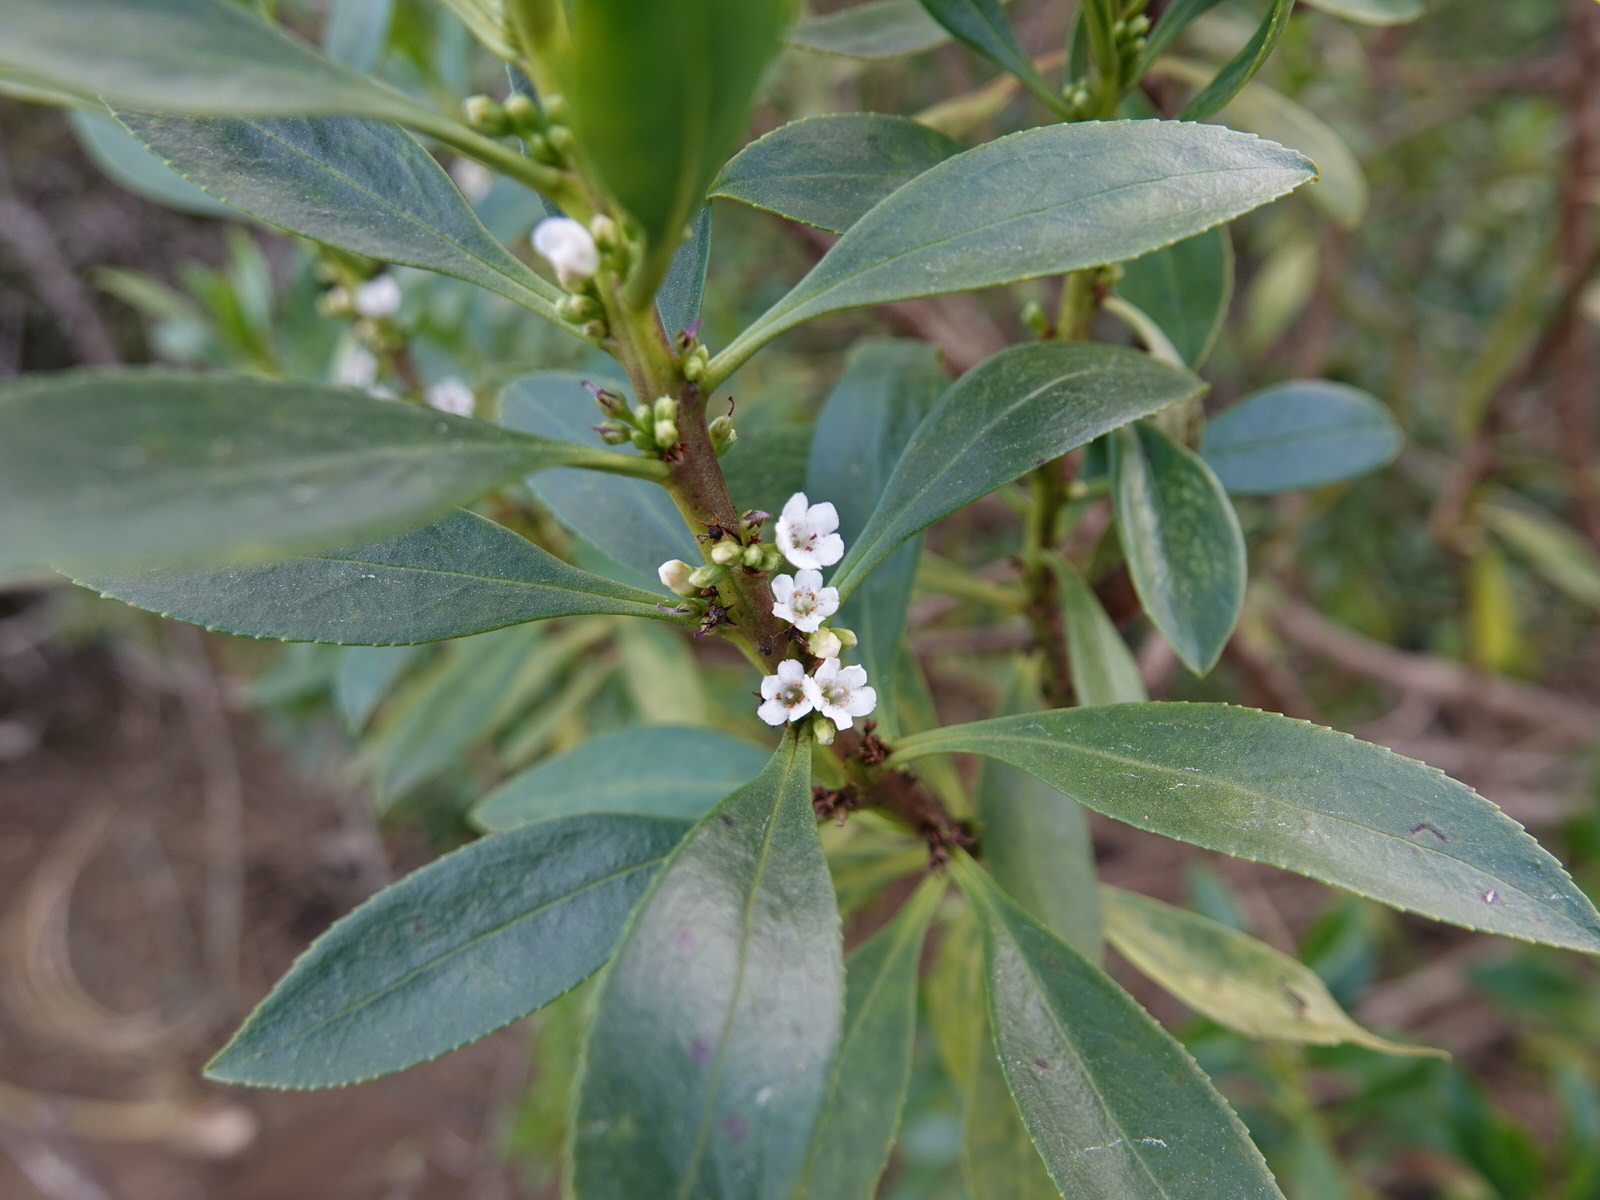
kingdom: Plantae
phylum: Tracheophyta
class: Magnoliopsida
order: Lamiales
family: Scrophulariaceae
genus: Myoporum
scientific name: Myoporum
